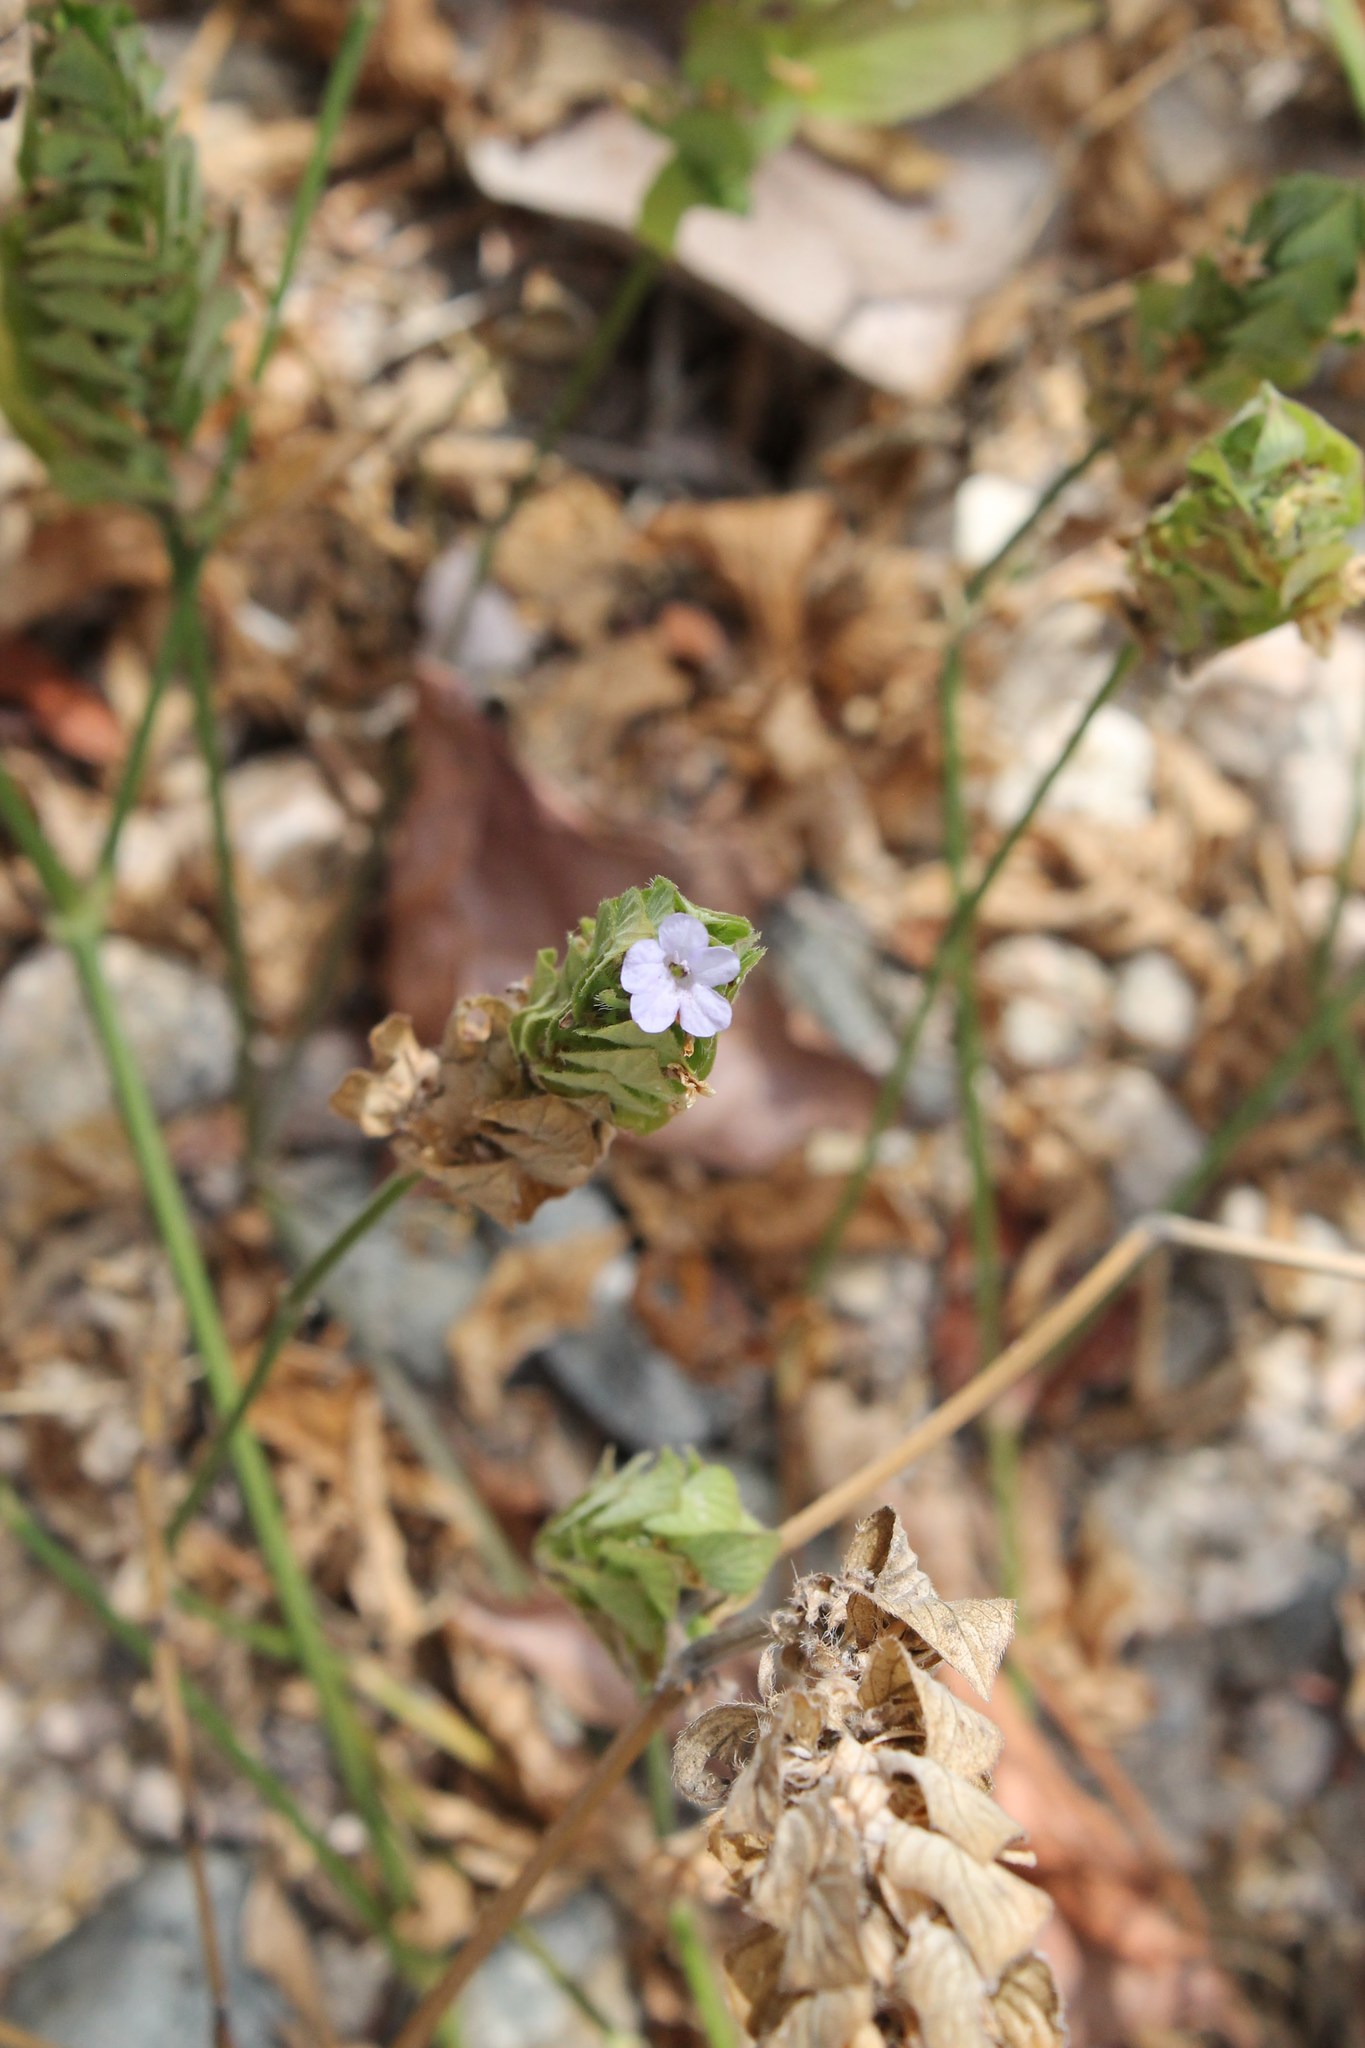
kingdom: Plantae
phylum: Tracheophyta
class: Magnoliopsida
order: Lamiales
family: Acanthaceae
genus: Ruellia
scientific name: Ruellia blechum
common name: Browne's blechum
